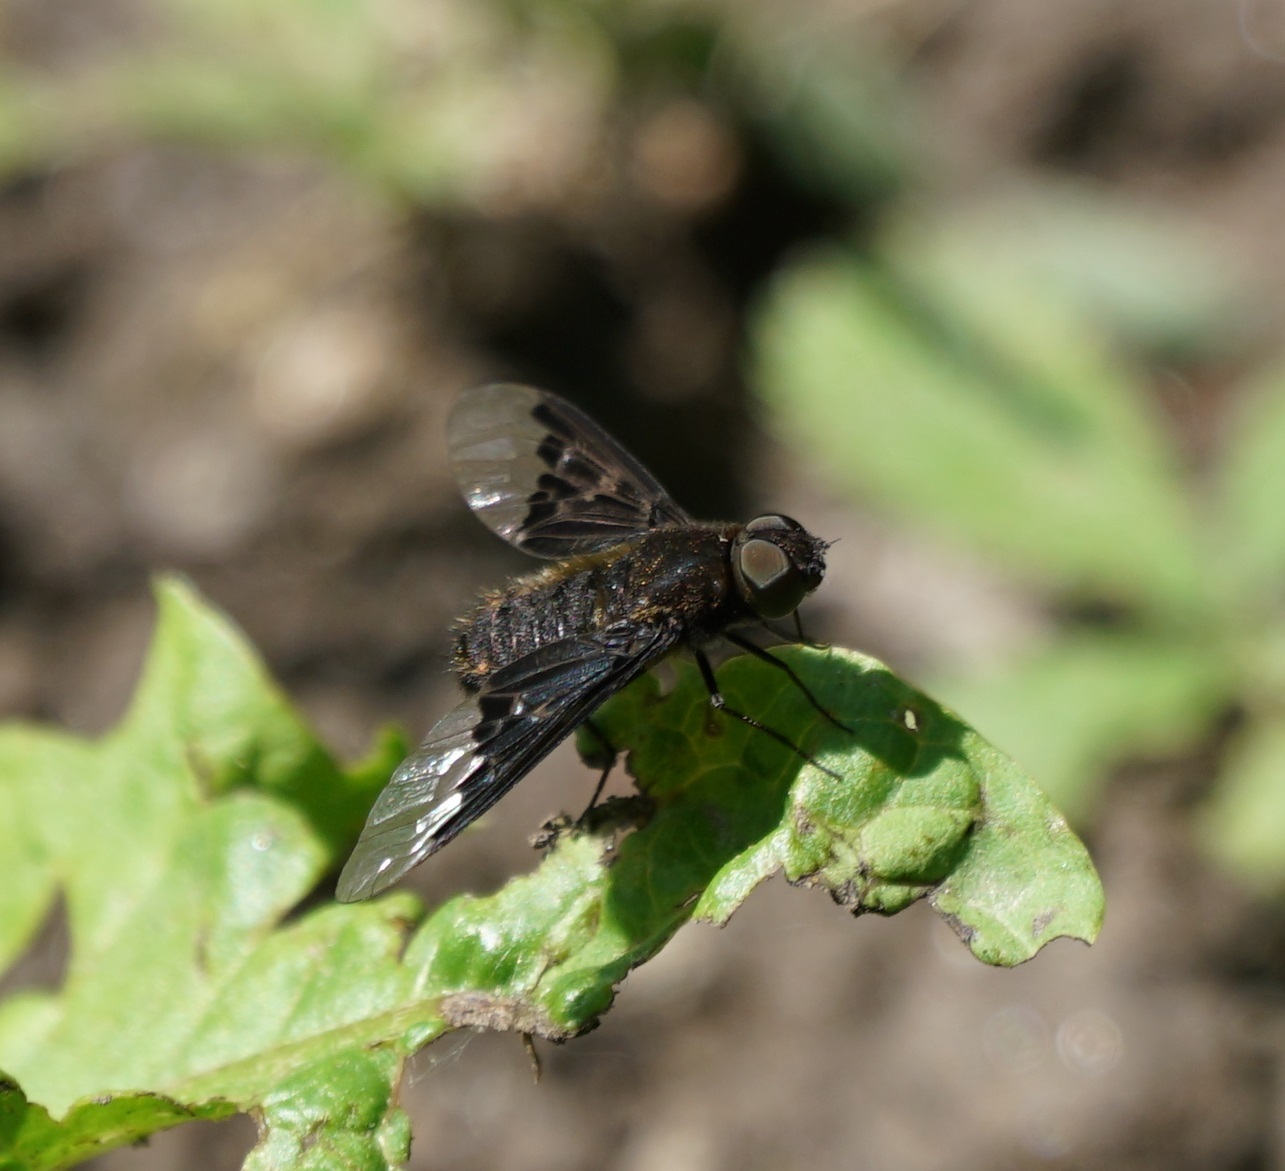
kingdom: Animalia
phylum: Arthropoda
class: Insecta
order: Diptera
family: Bombyliidae
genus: Hemipenthes
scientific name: Hemipenthes morio
